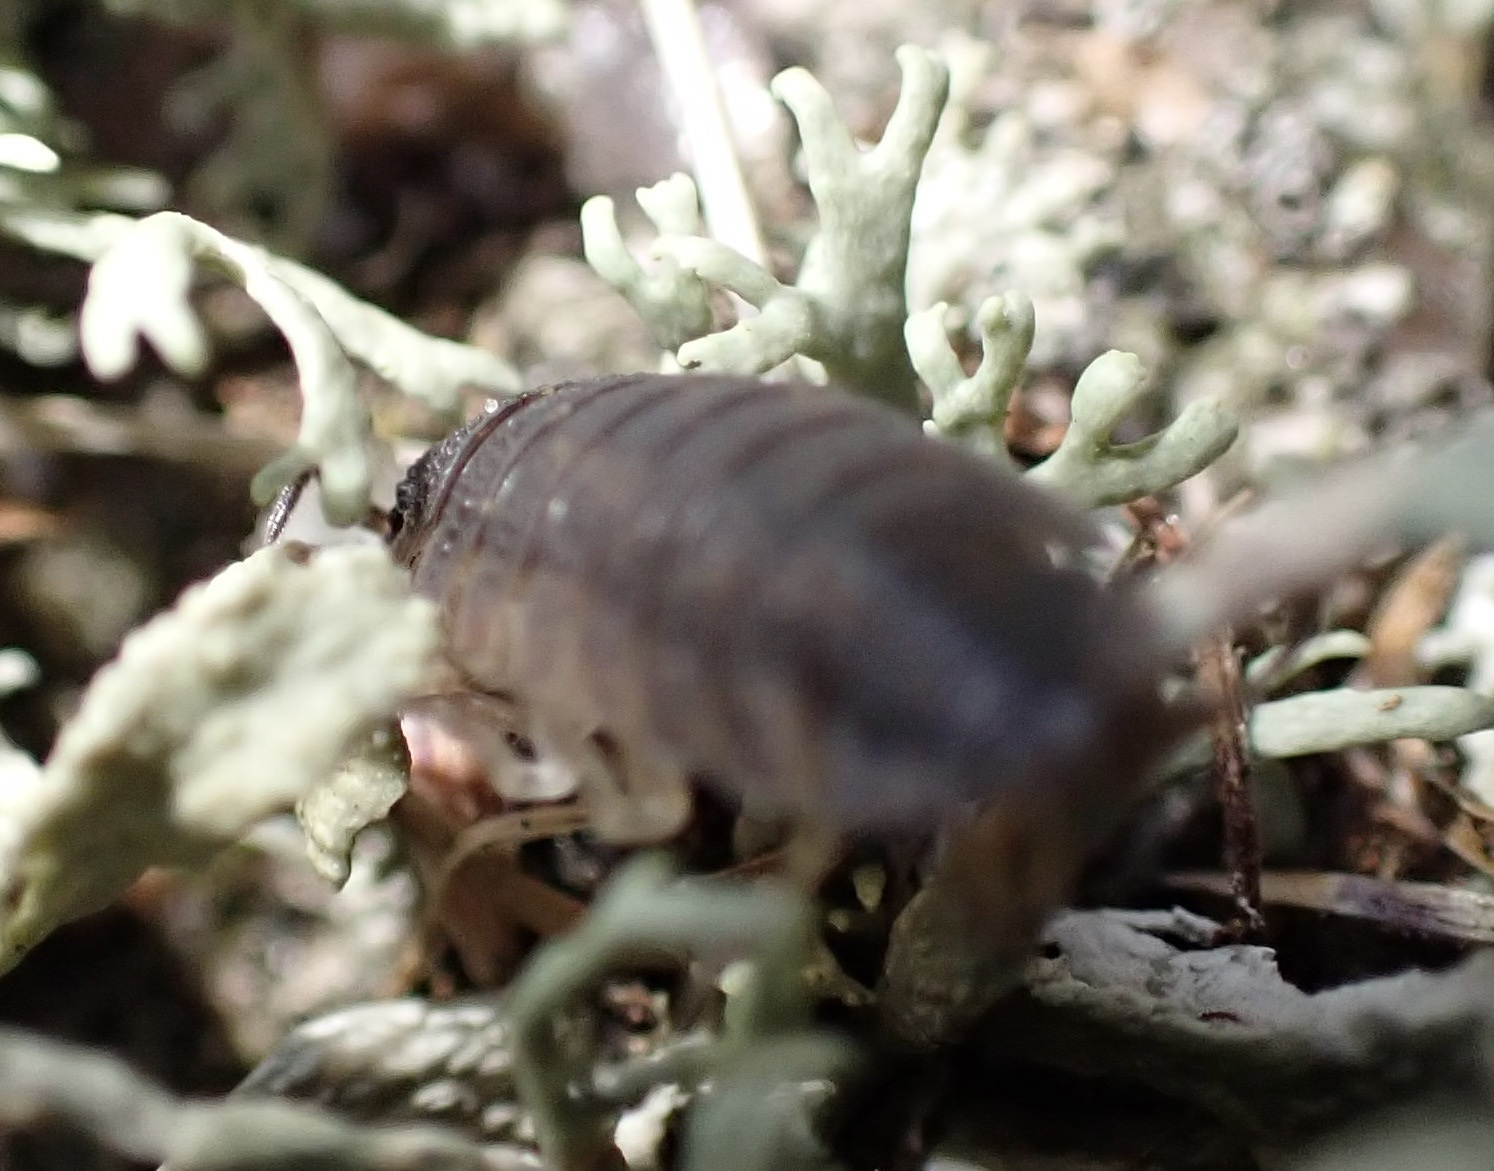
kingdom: Animalia
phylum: Arthropoda
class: Malacostraca
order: Isopoda
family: Porcellionidae
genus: Porcellio
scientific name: Porcellio scaber
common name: Common rough woodlouse
